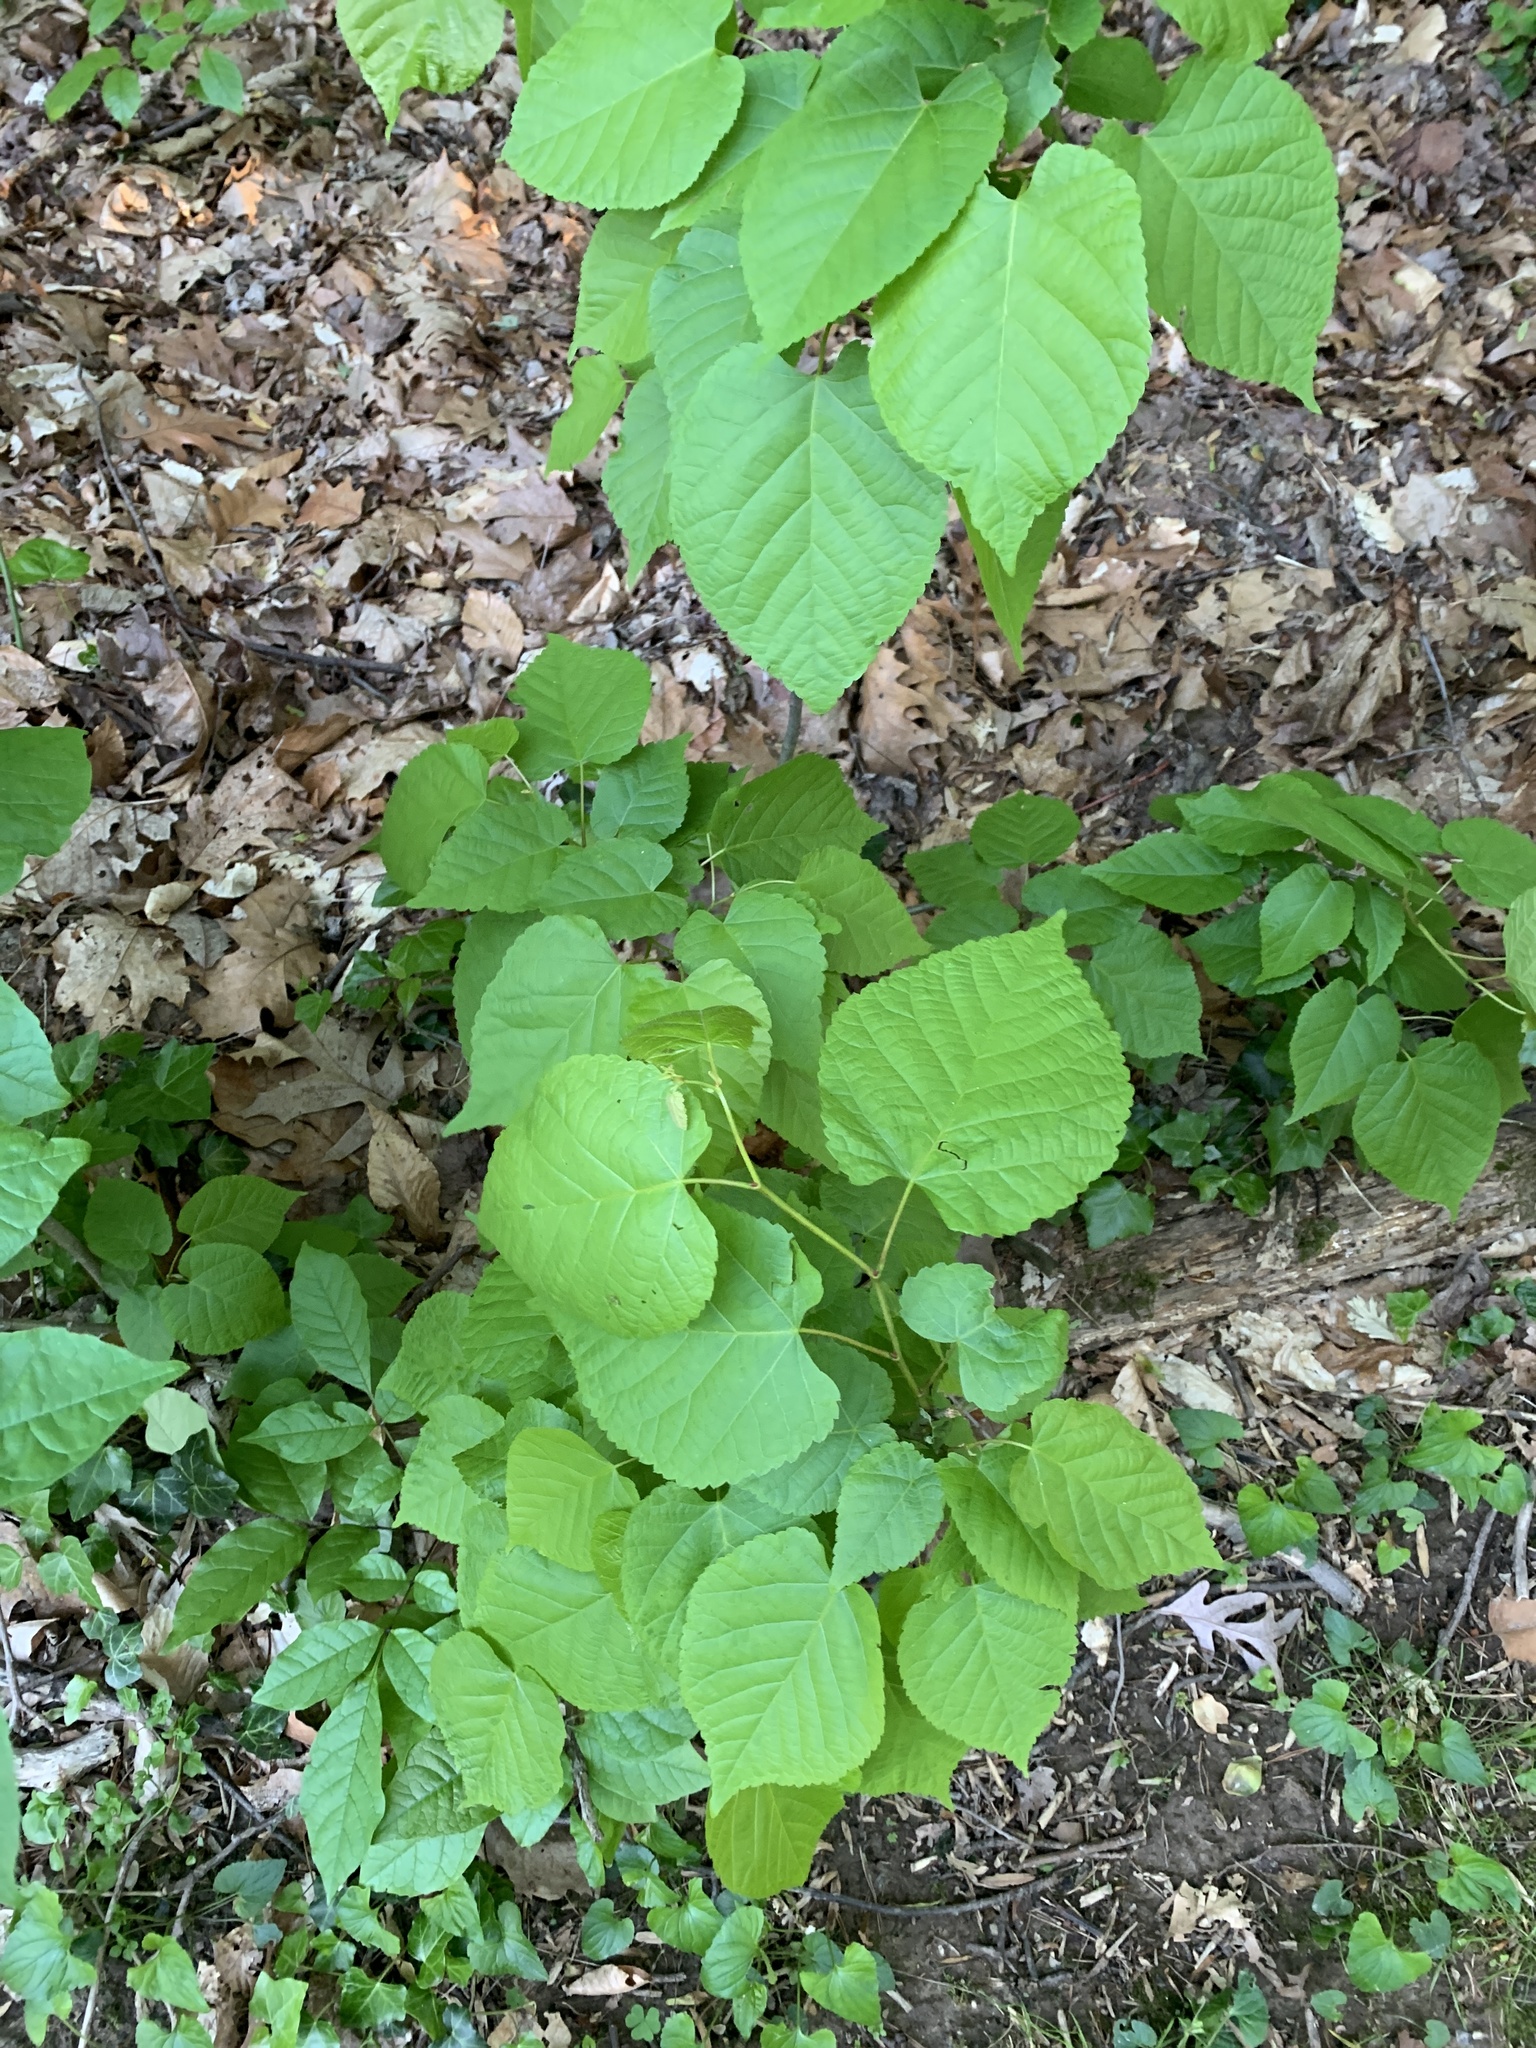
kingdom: Plantae
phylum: Tracheophyta
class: Magnoliopsida
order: Malvales
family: Malvaceae
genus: Tilia
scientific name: Tilia americana
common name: Basswood
